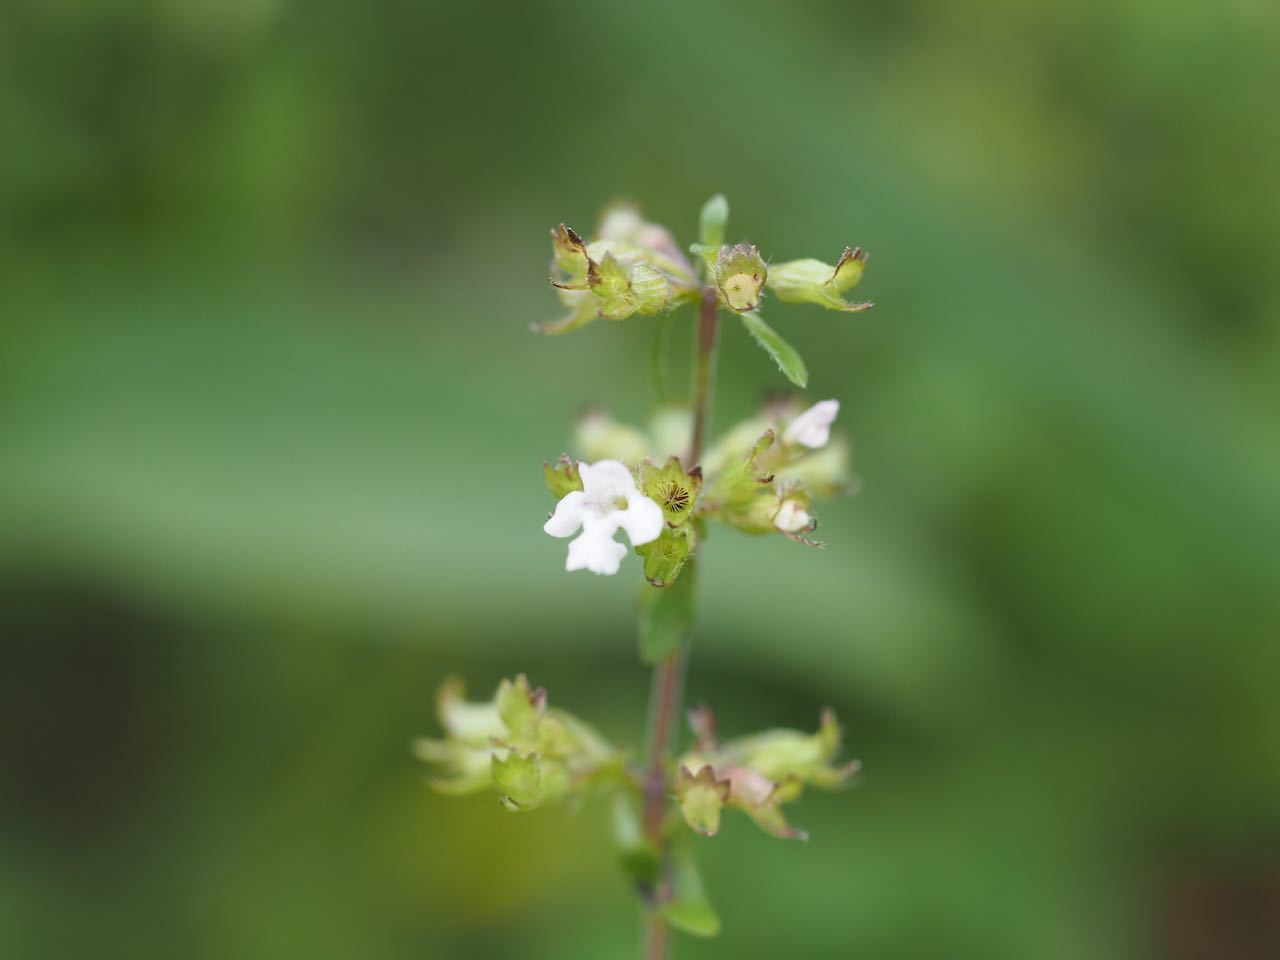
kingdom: Plantae
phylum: Tracheophyta
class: Magnoliopsida
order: Lamiales
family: Lamiaceae
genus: Clinopodium
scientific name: Clinopodium gracile
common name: Slender wild basil
